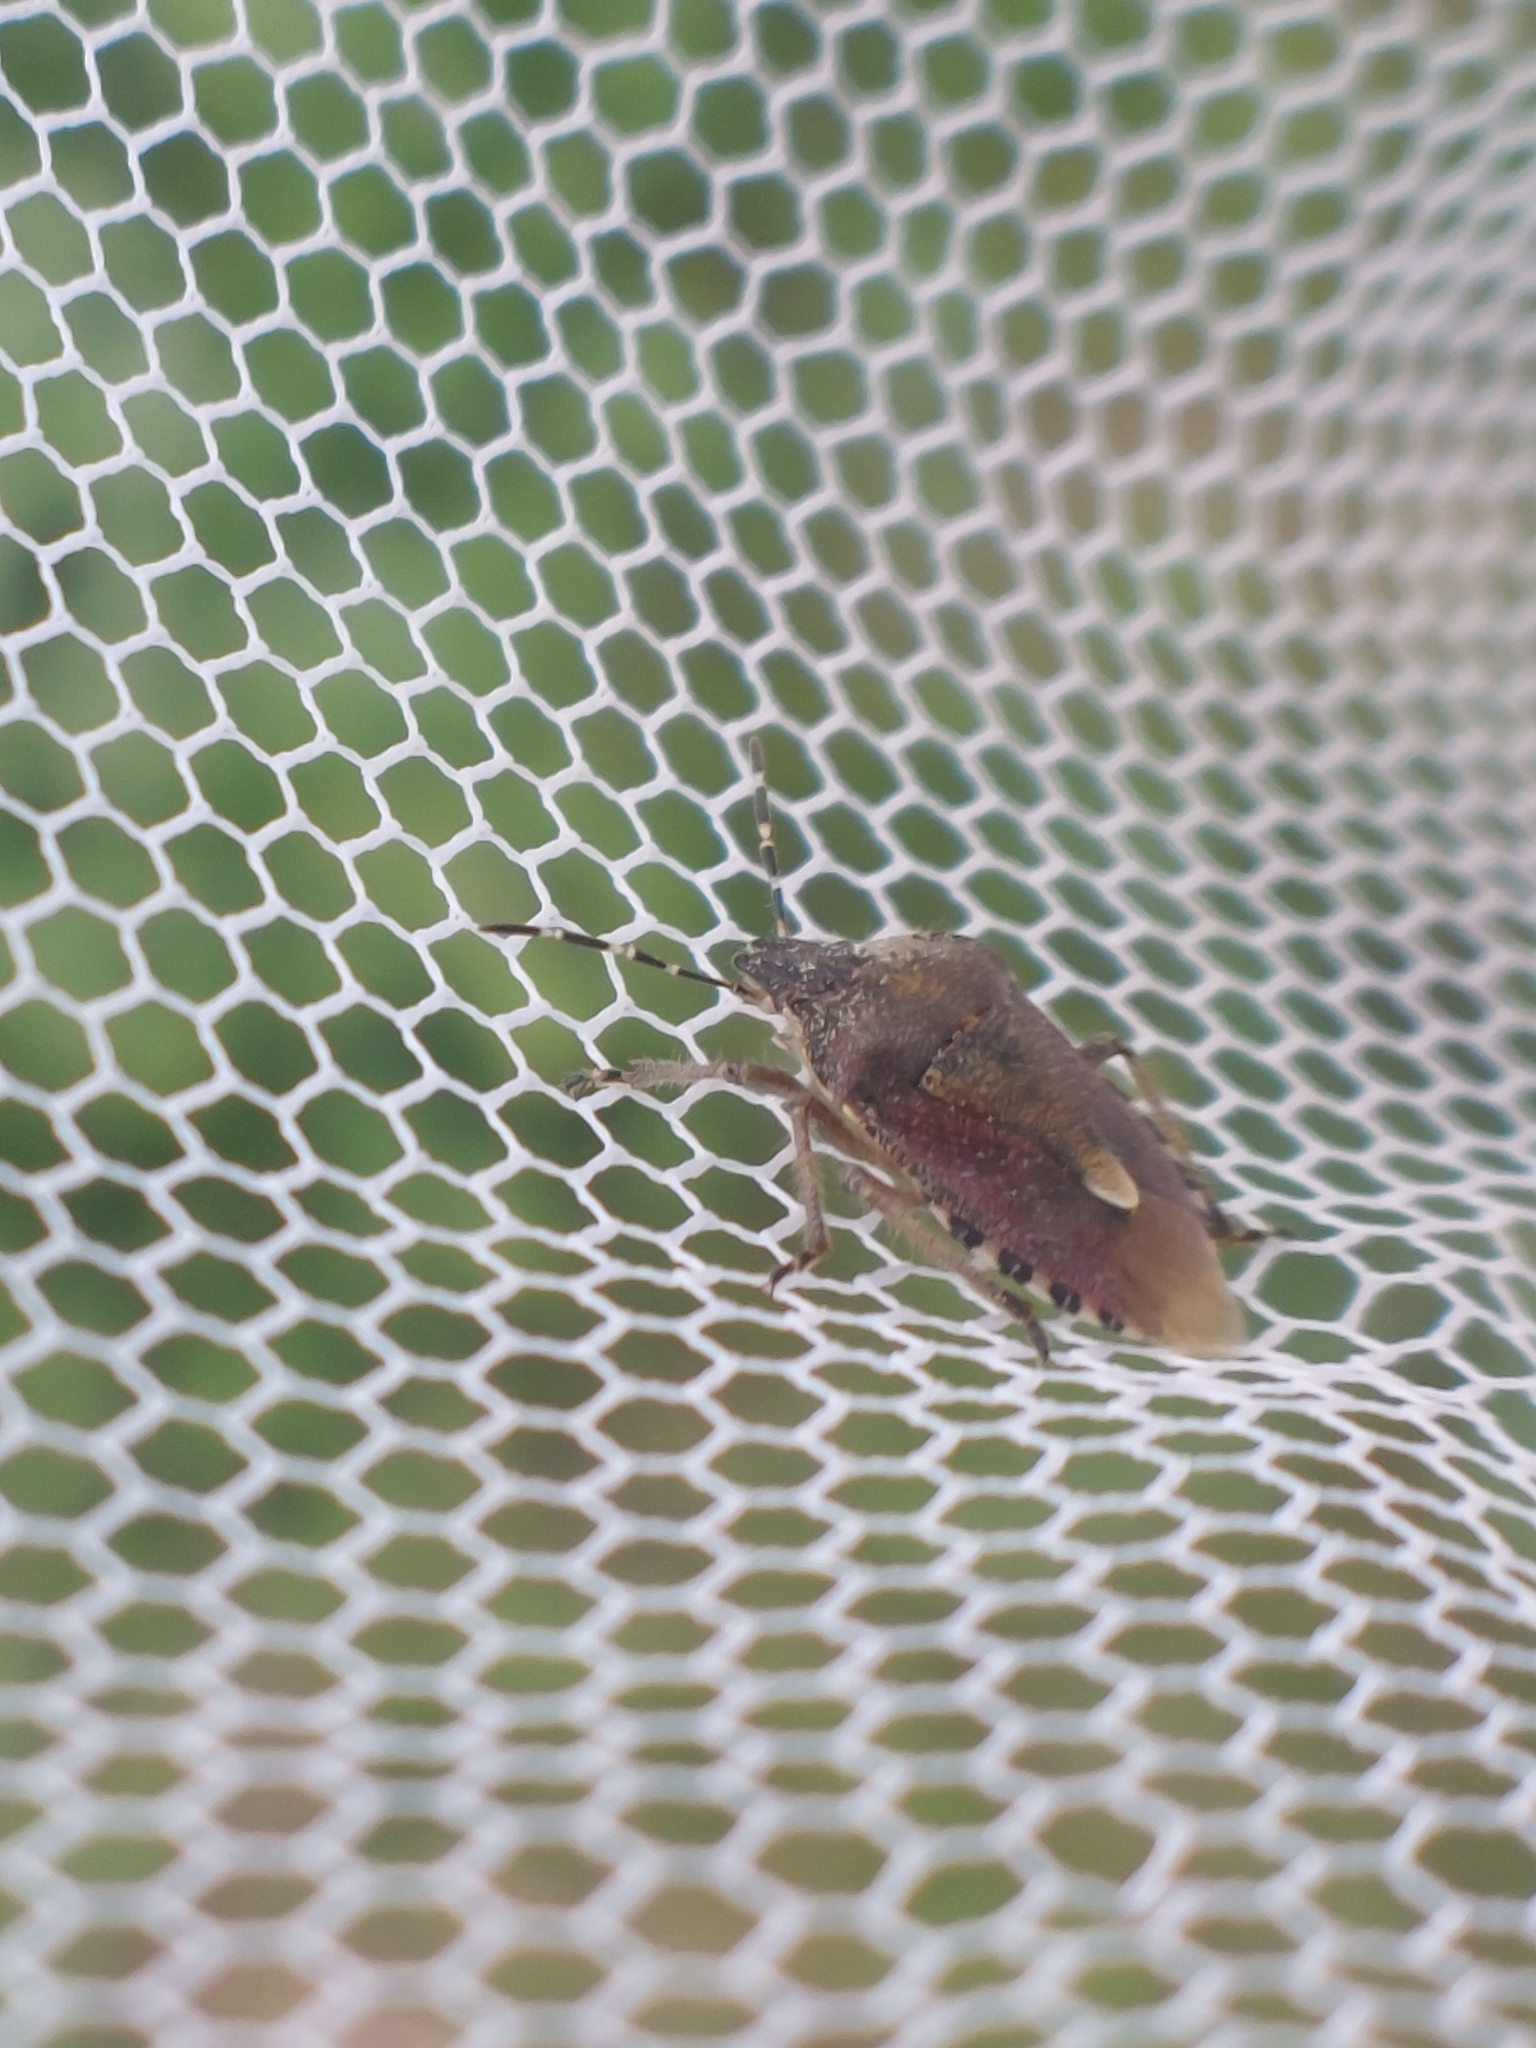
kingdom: Animalia
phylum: Arthropoda
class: Insecta
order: Hemiptera
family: Pentatomidae
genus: Dolycoris
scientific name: Dolycoris baccarum
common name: Sloe bug
